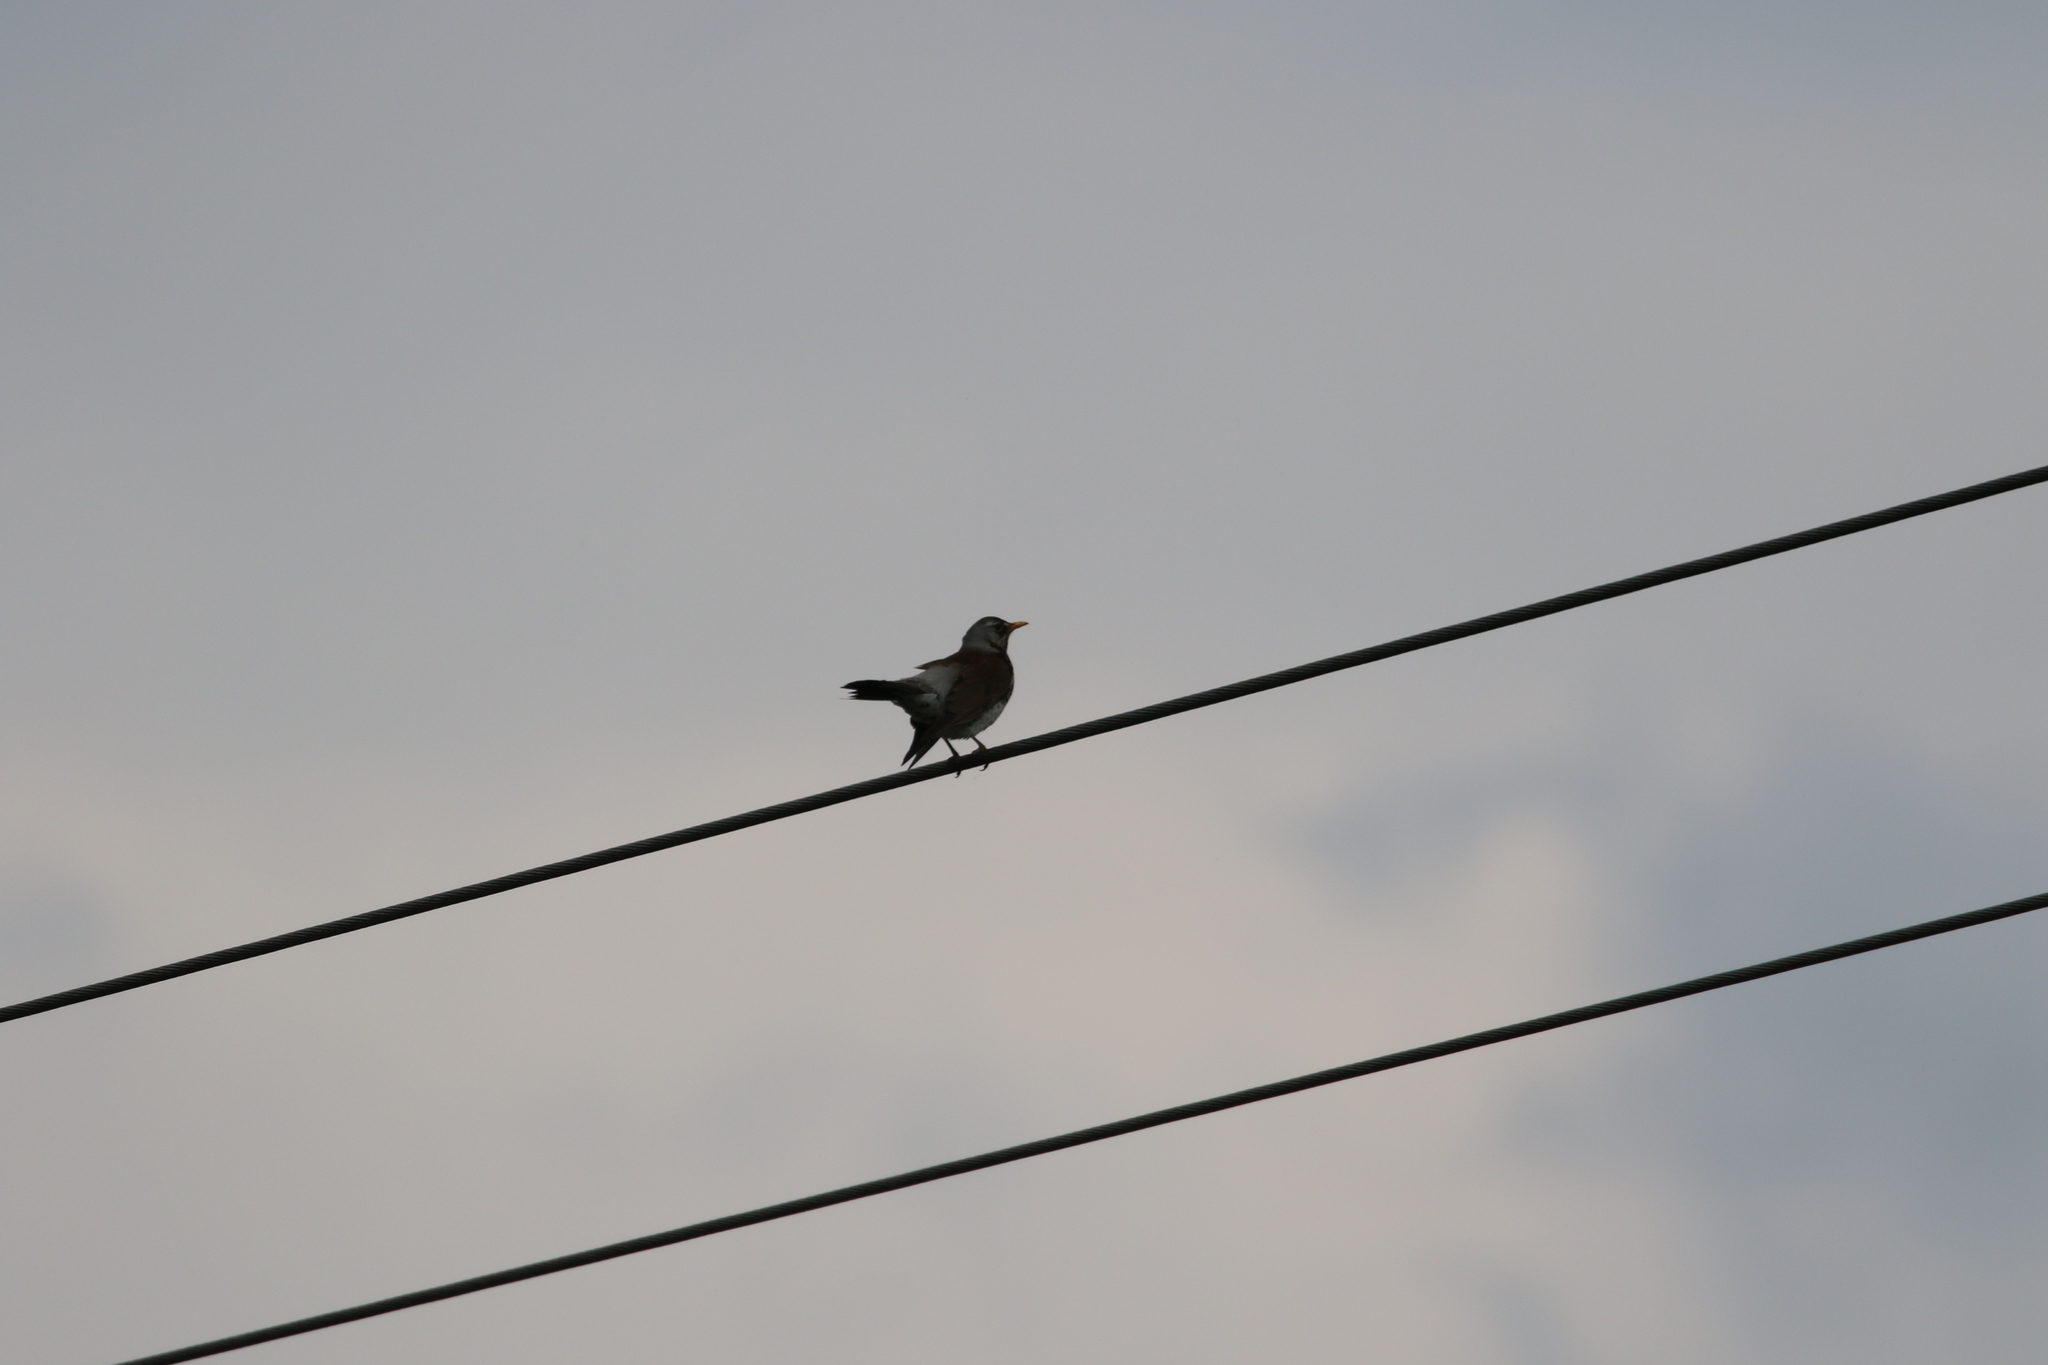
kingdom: Animalia
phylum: Chordata
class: Aves
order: Passeriformes
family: Turdidae
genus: Turdus
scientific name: Turdus pilaris
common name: Fieldfare
